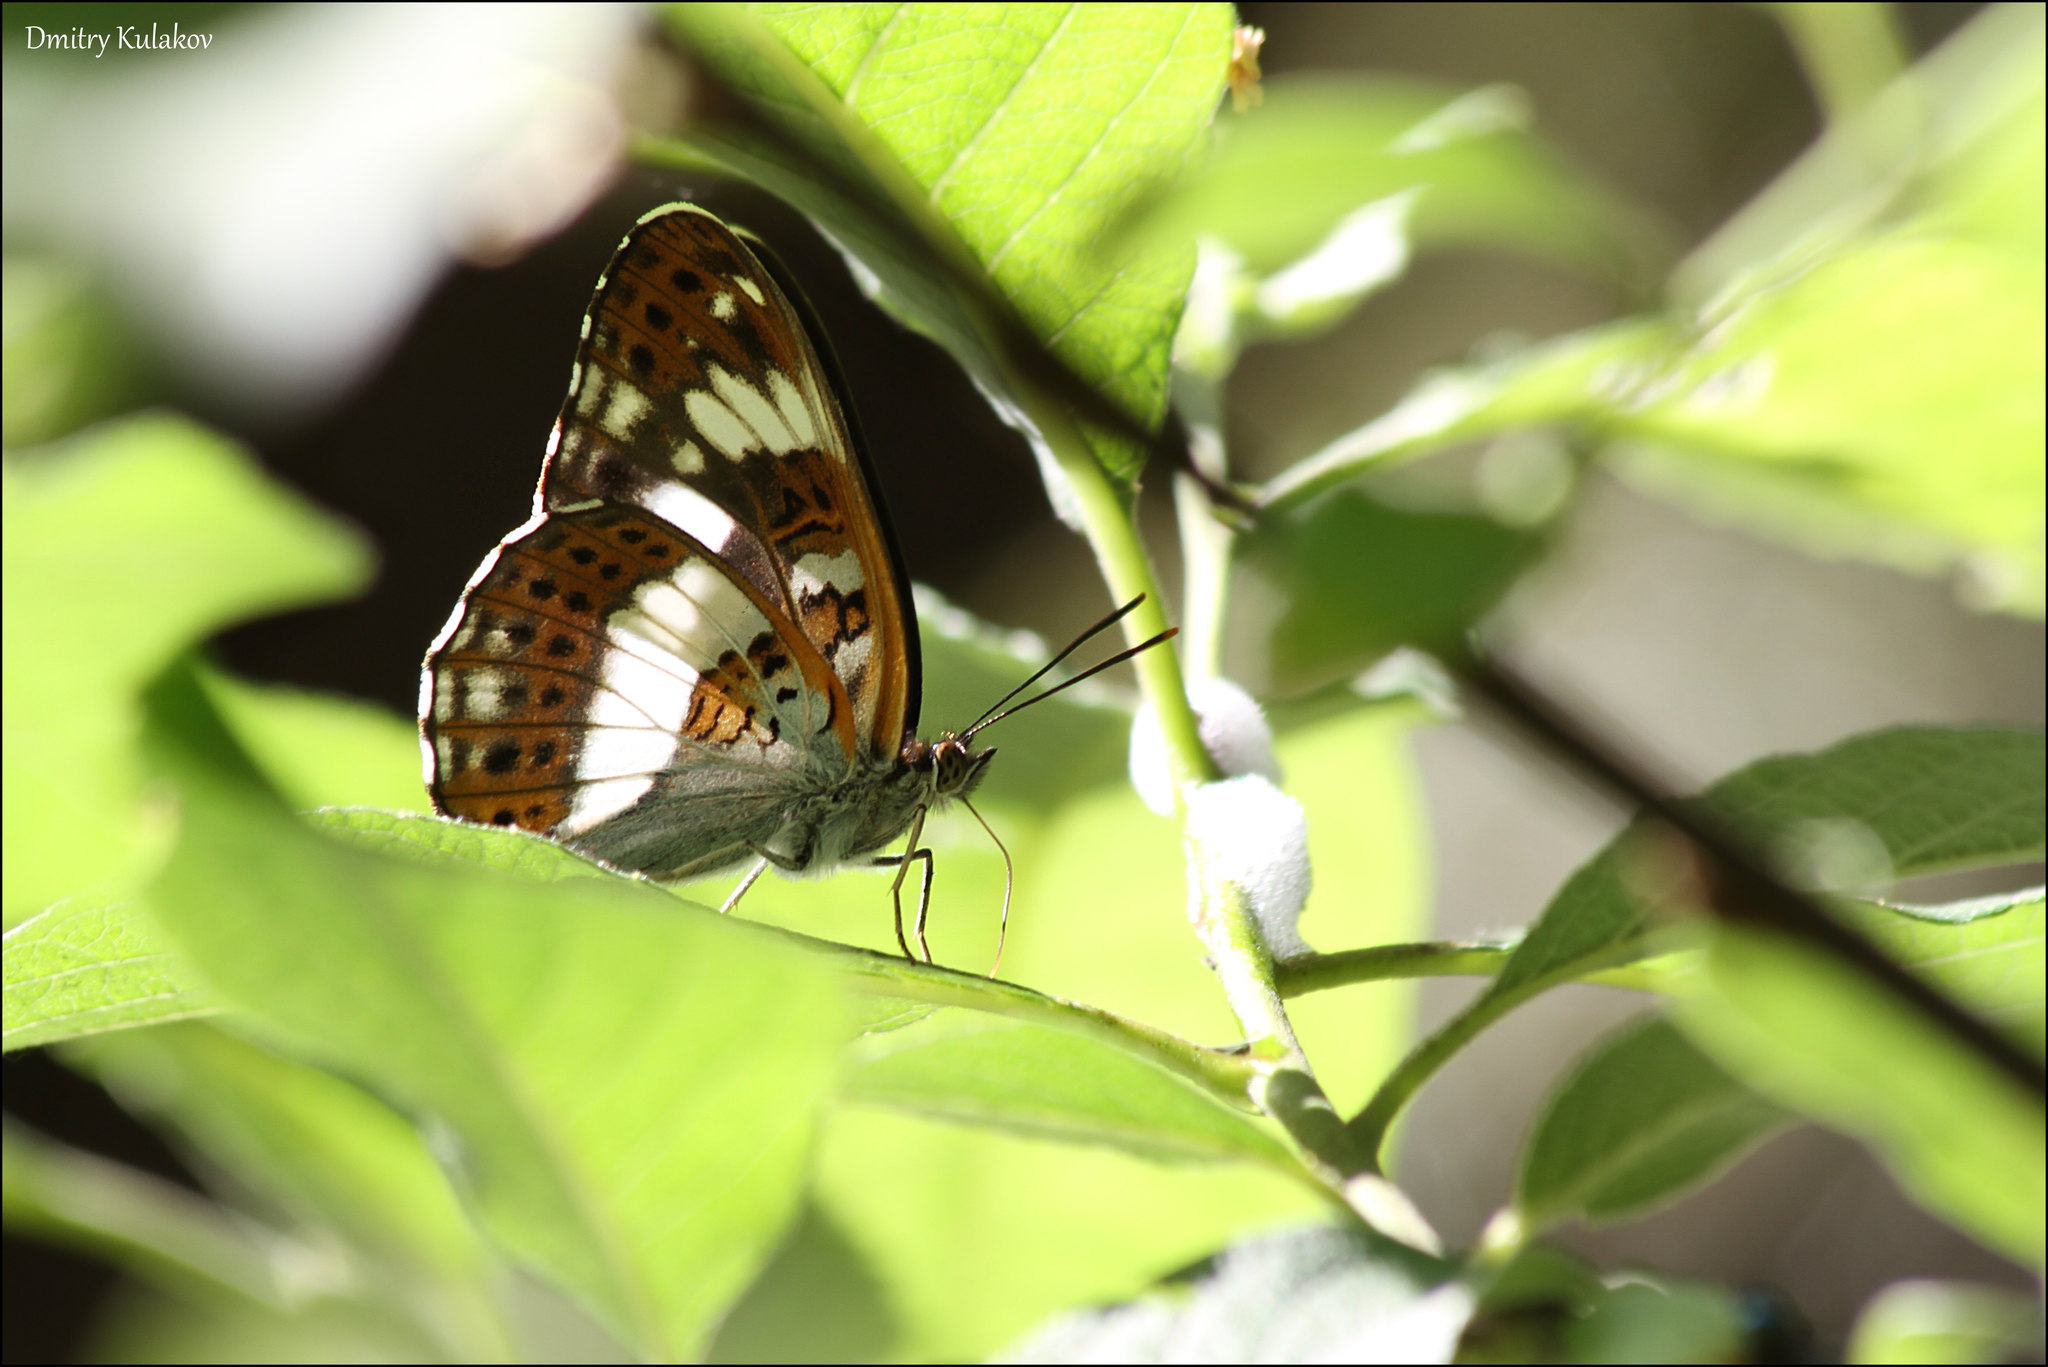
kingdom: Animalia
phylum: Arthropoda
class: Insecta
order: Lepidoptera
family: Nymphalidae
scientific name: Nymphalidae
